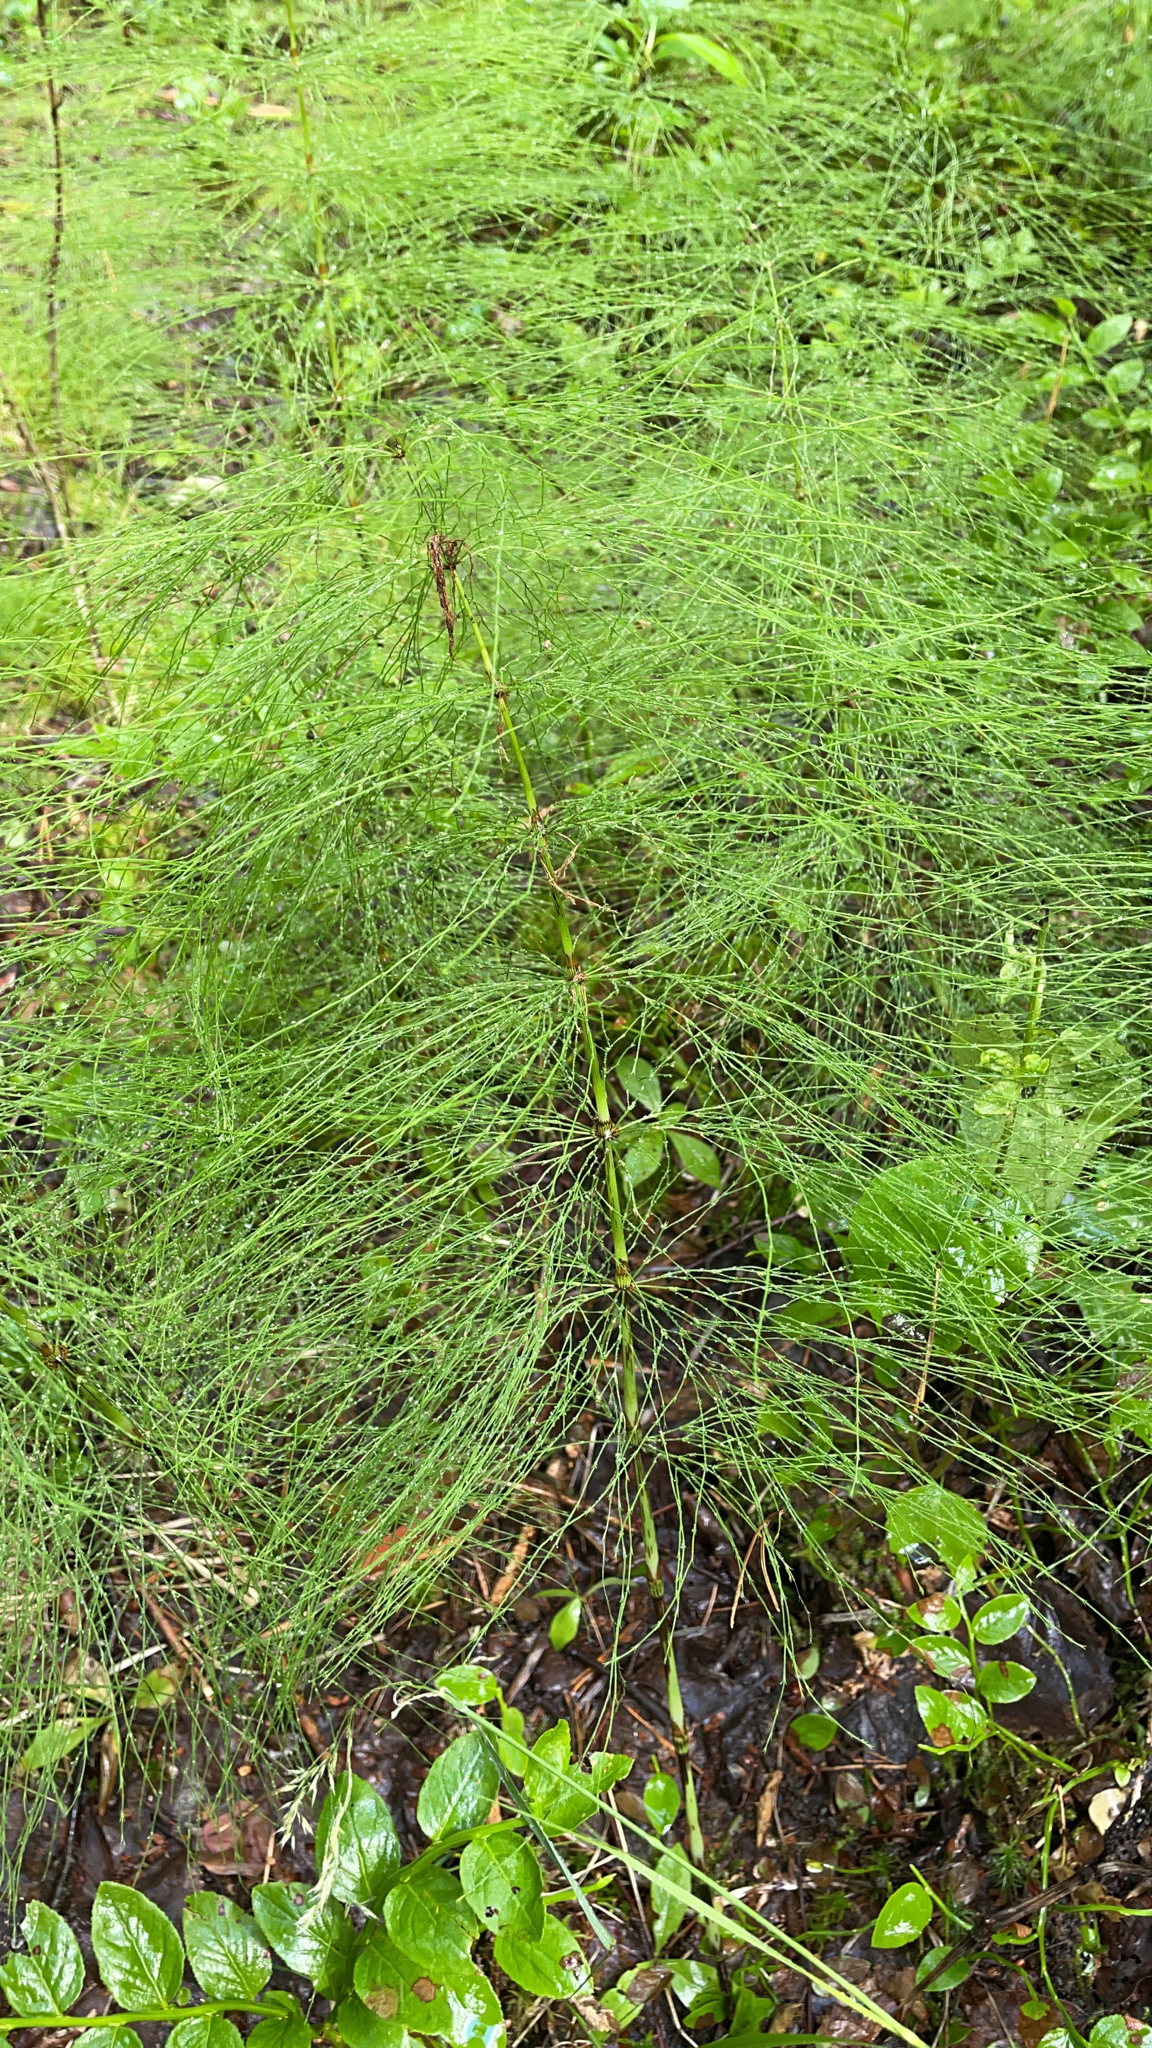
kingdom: Plantae
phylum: Tracheophyta
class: Polypodiopsida
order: Equisetales
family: Equisetaceae
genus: Equisetum
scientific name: Equisetum sylvaticum
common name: Wood horsetail
